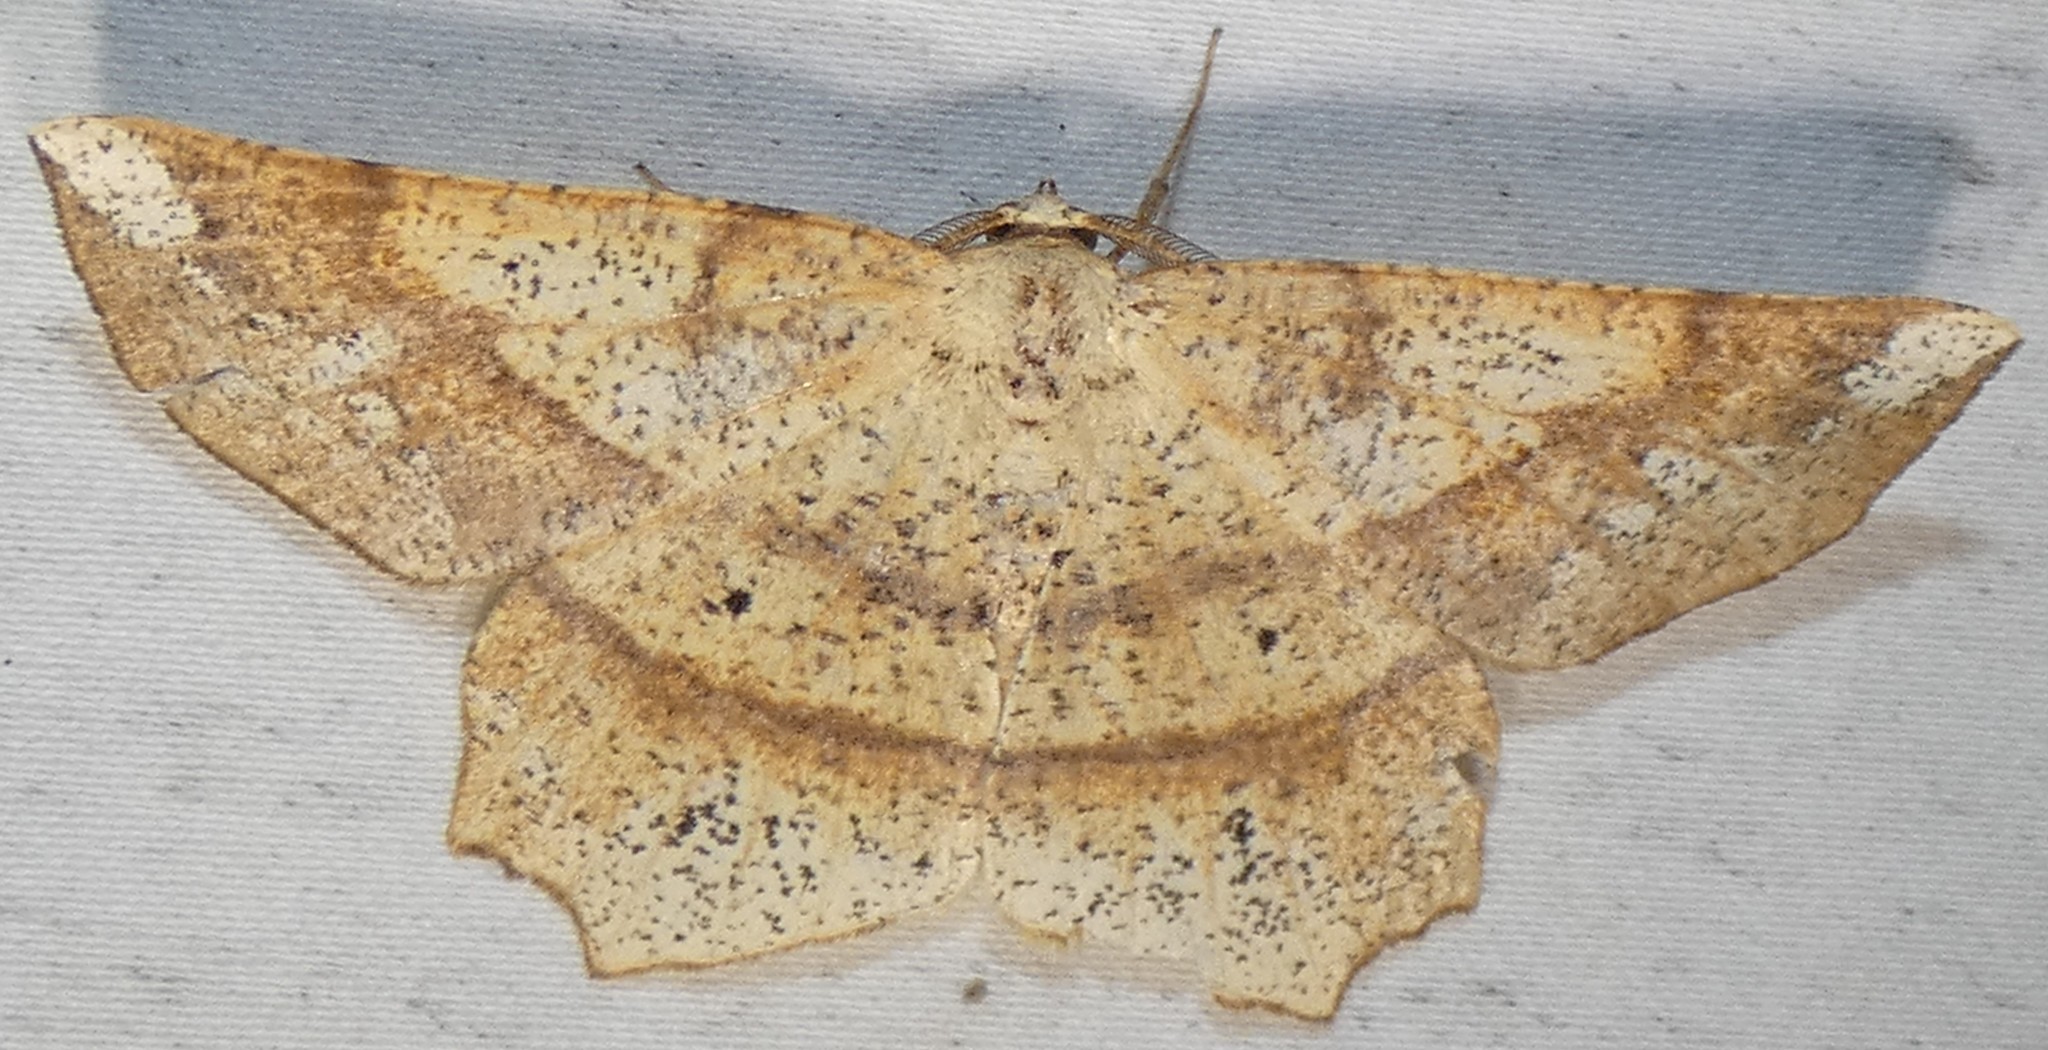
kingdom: Animalia
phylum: Arthropoda
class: Insecta
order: Lepidoptera
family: Geometridae
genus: Euchlaena
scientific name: Euchlaena amoenaria
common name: Deep yellow euchlaena
